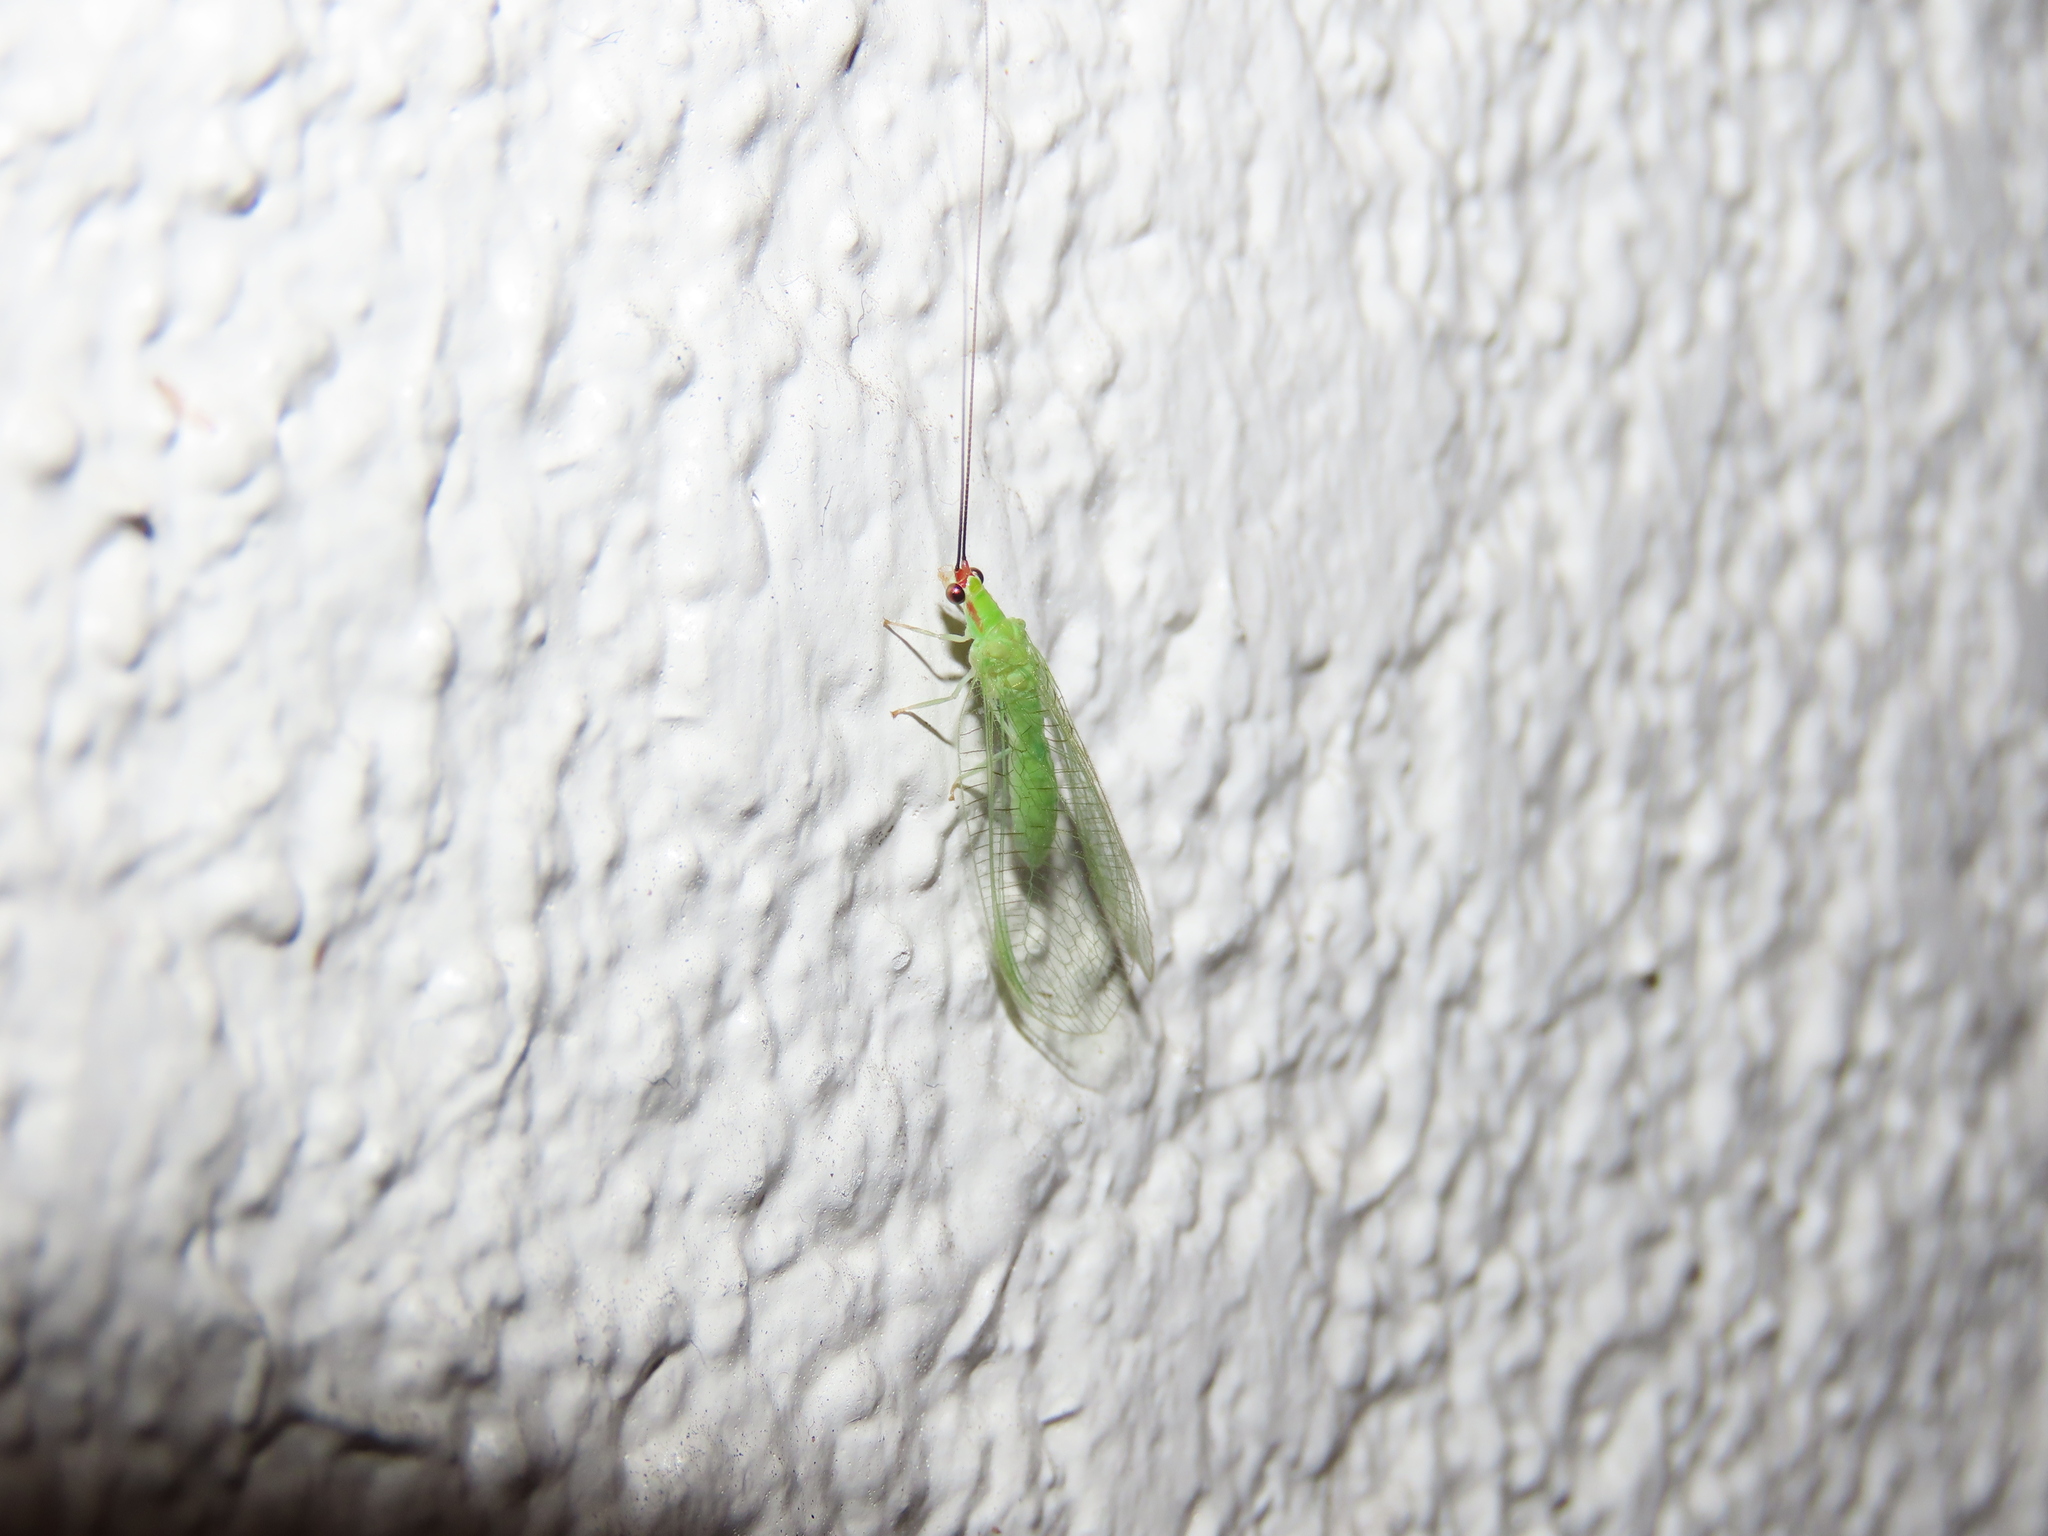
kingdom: Animalia
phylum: Arthropoda
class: Insecta
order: Neuroptera
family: Chrysopidae
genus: Ceraeochrysa
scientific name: Ceraeochrysa smithi
